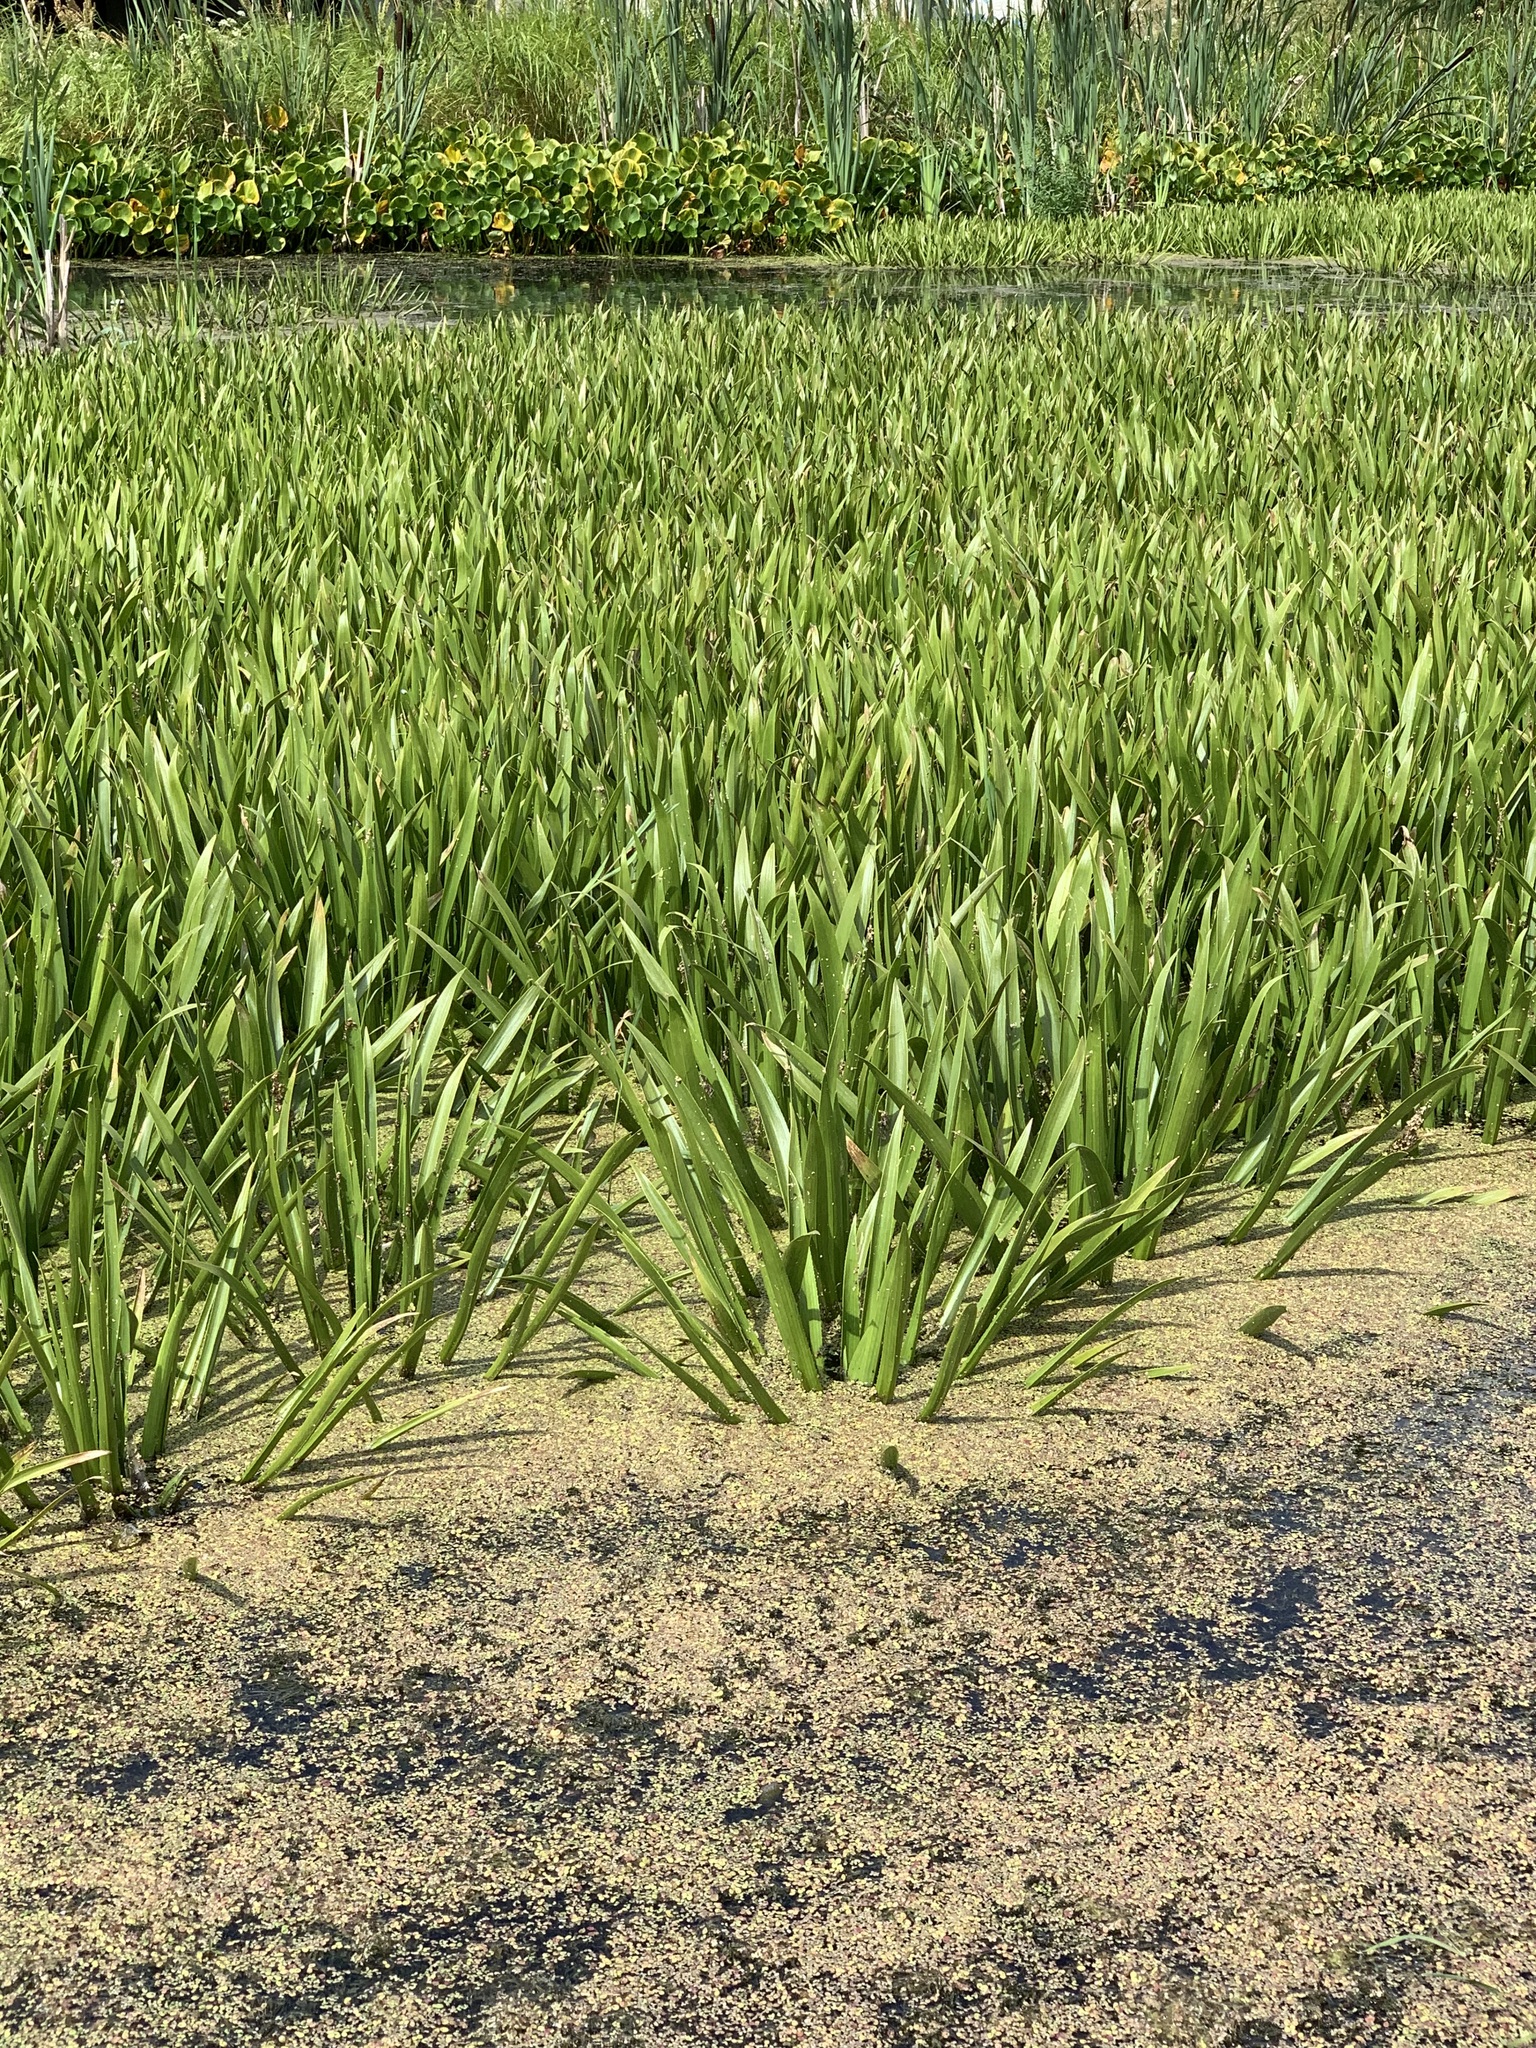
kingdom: Plantae
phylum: Tracheophyta
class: Liliopsida
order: Alismatales
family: Hydrocharitaceae
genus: Stratiotes
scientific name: Stratiotes aloides
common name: Water-soldier
